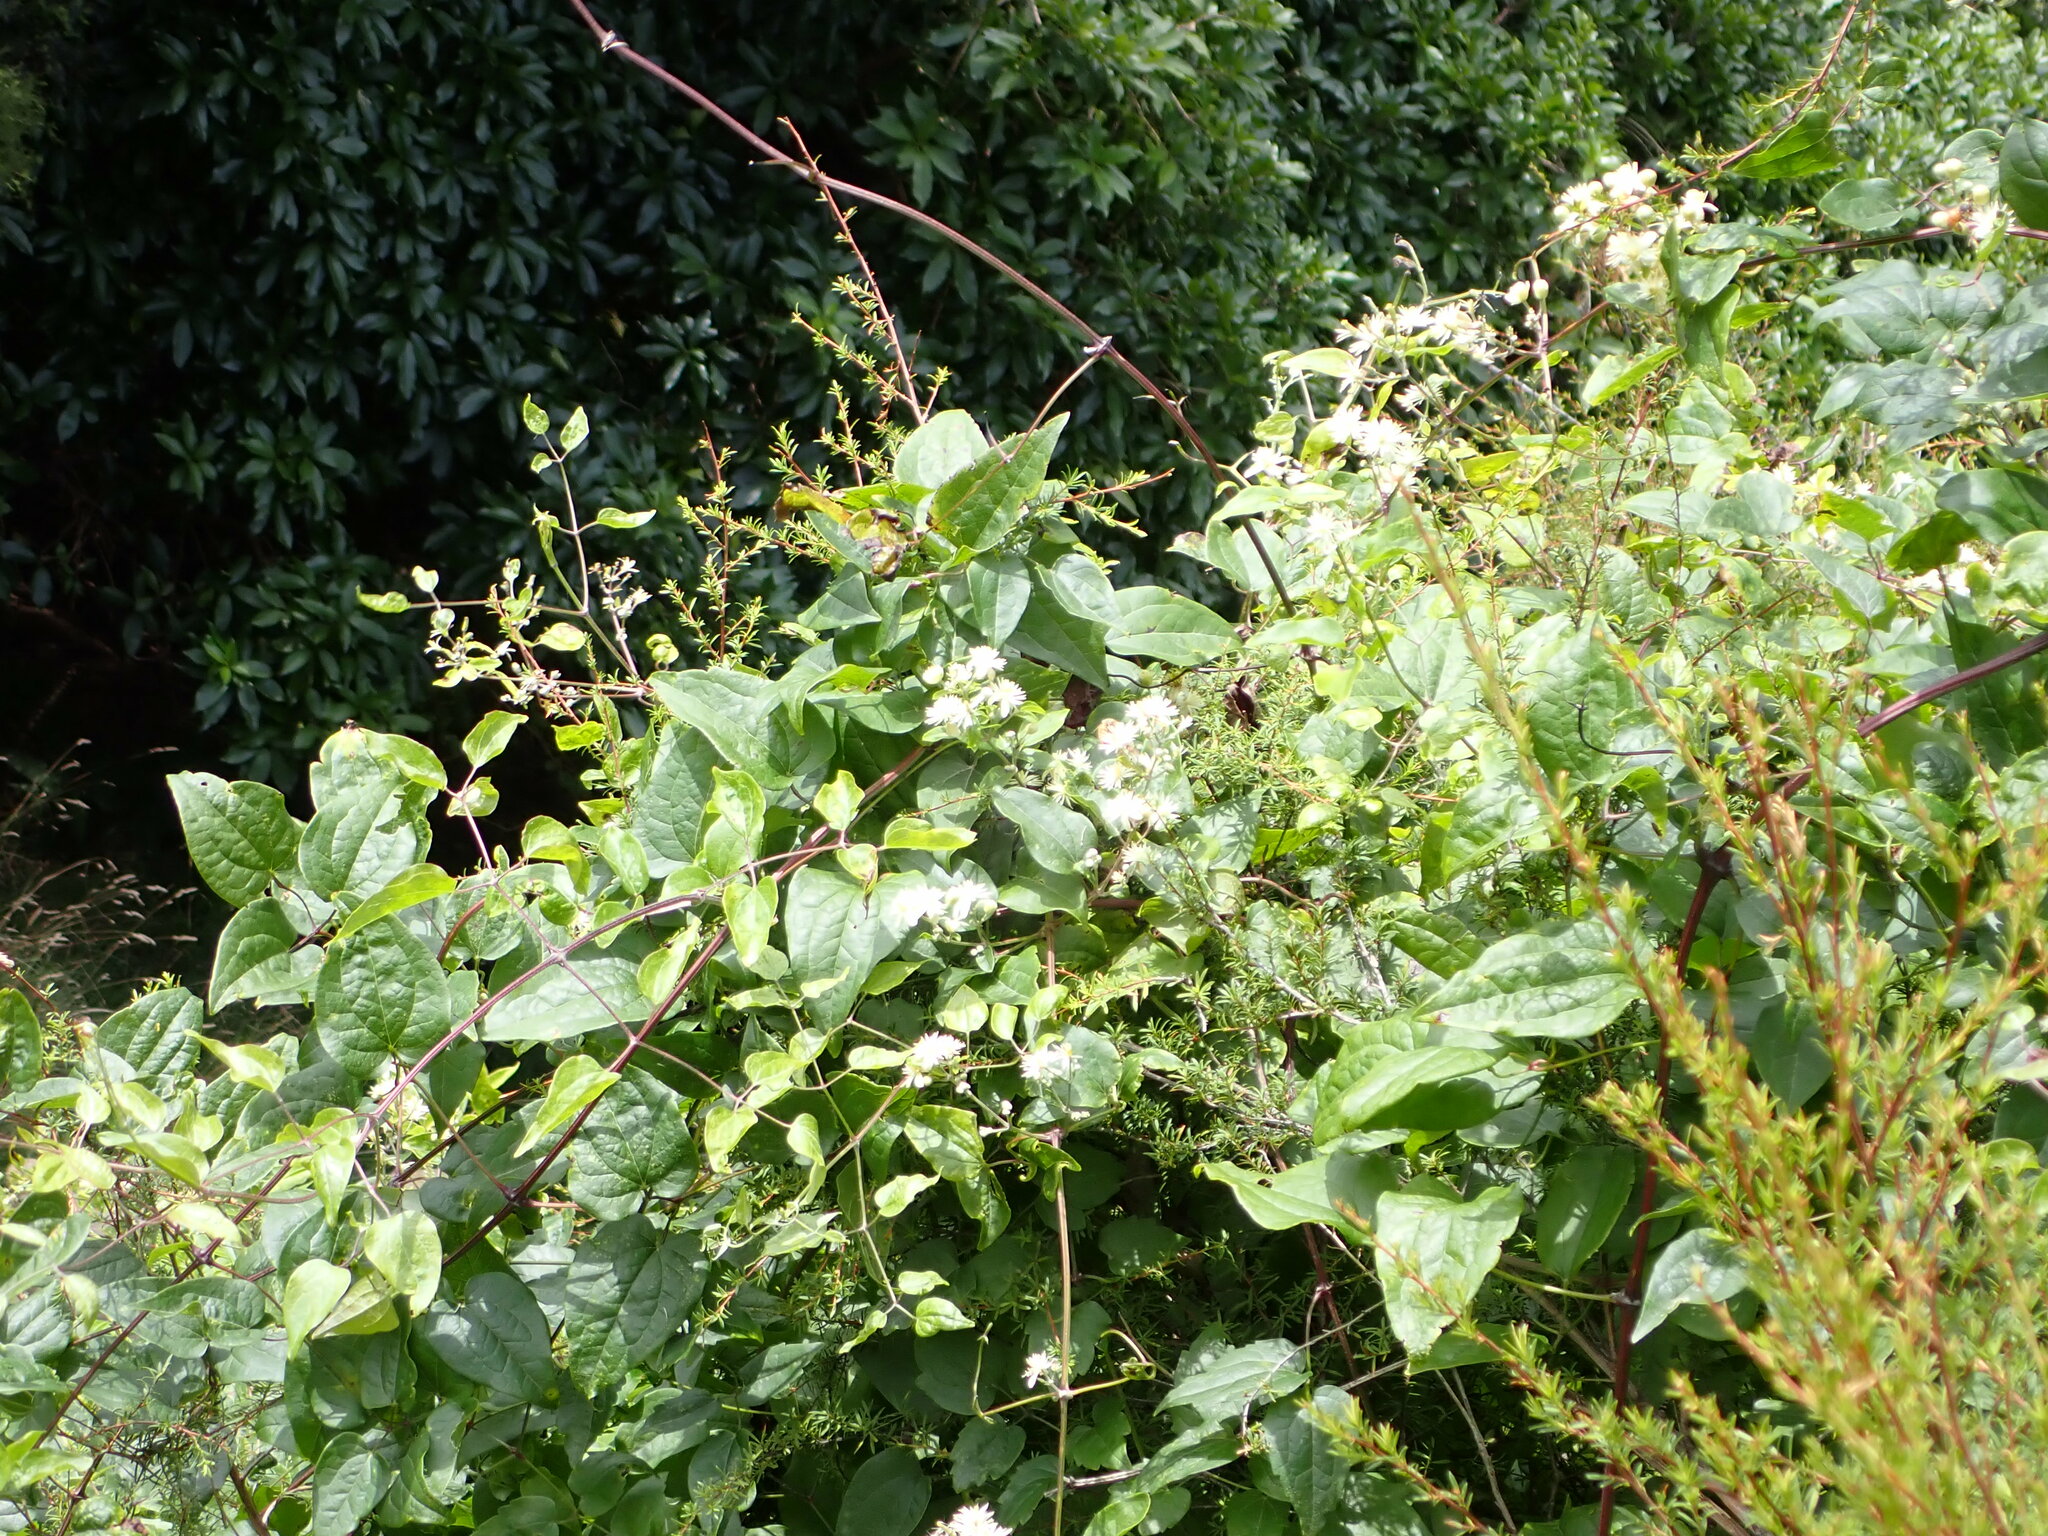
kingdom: Plantae
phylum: Tracheophyta
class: Magnoliopsida
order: Ranunculales
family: Ranunculaceae
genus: Clematis
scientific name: Clematis vitalba
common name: Evergreen clematis
